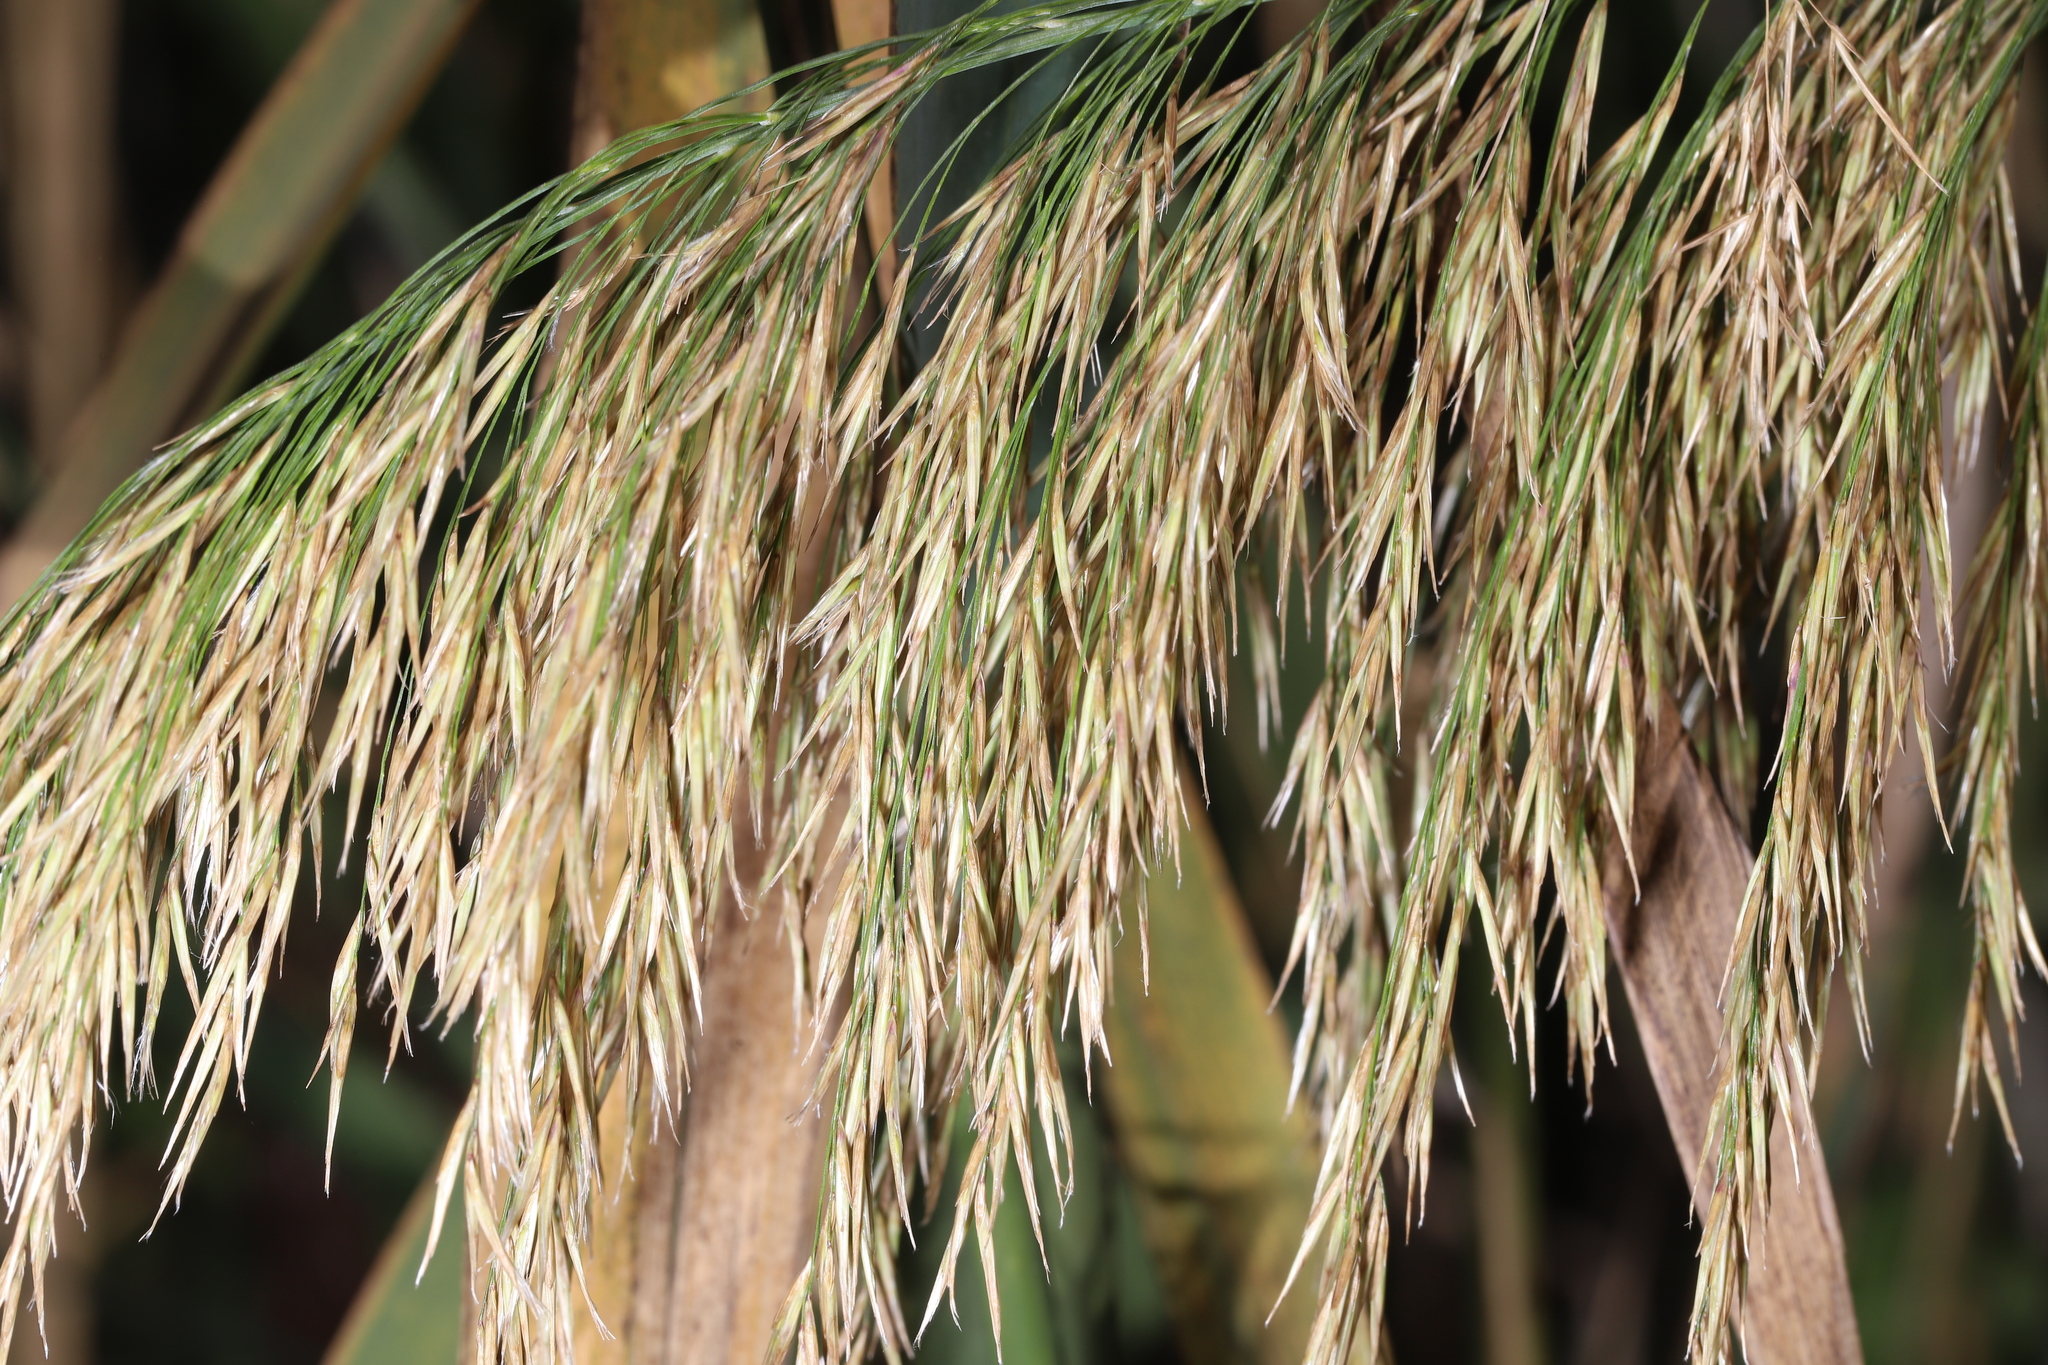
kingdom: Plantae
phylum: Tracheophyta
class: Liliopsida
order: Poales
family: Poaceae
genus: Phragmites
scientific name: Phragmites australis
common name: Common reed
